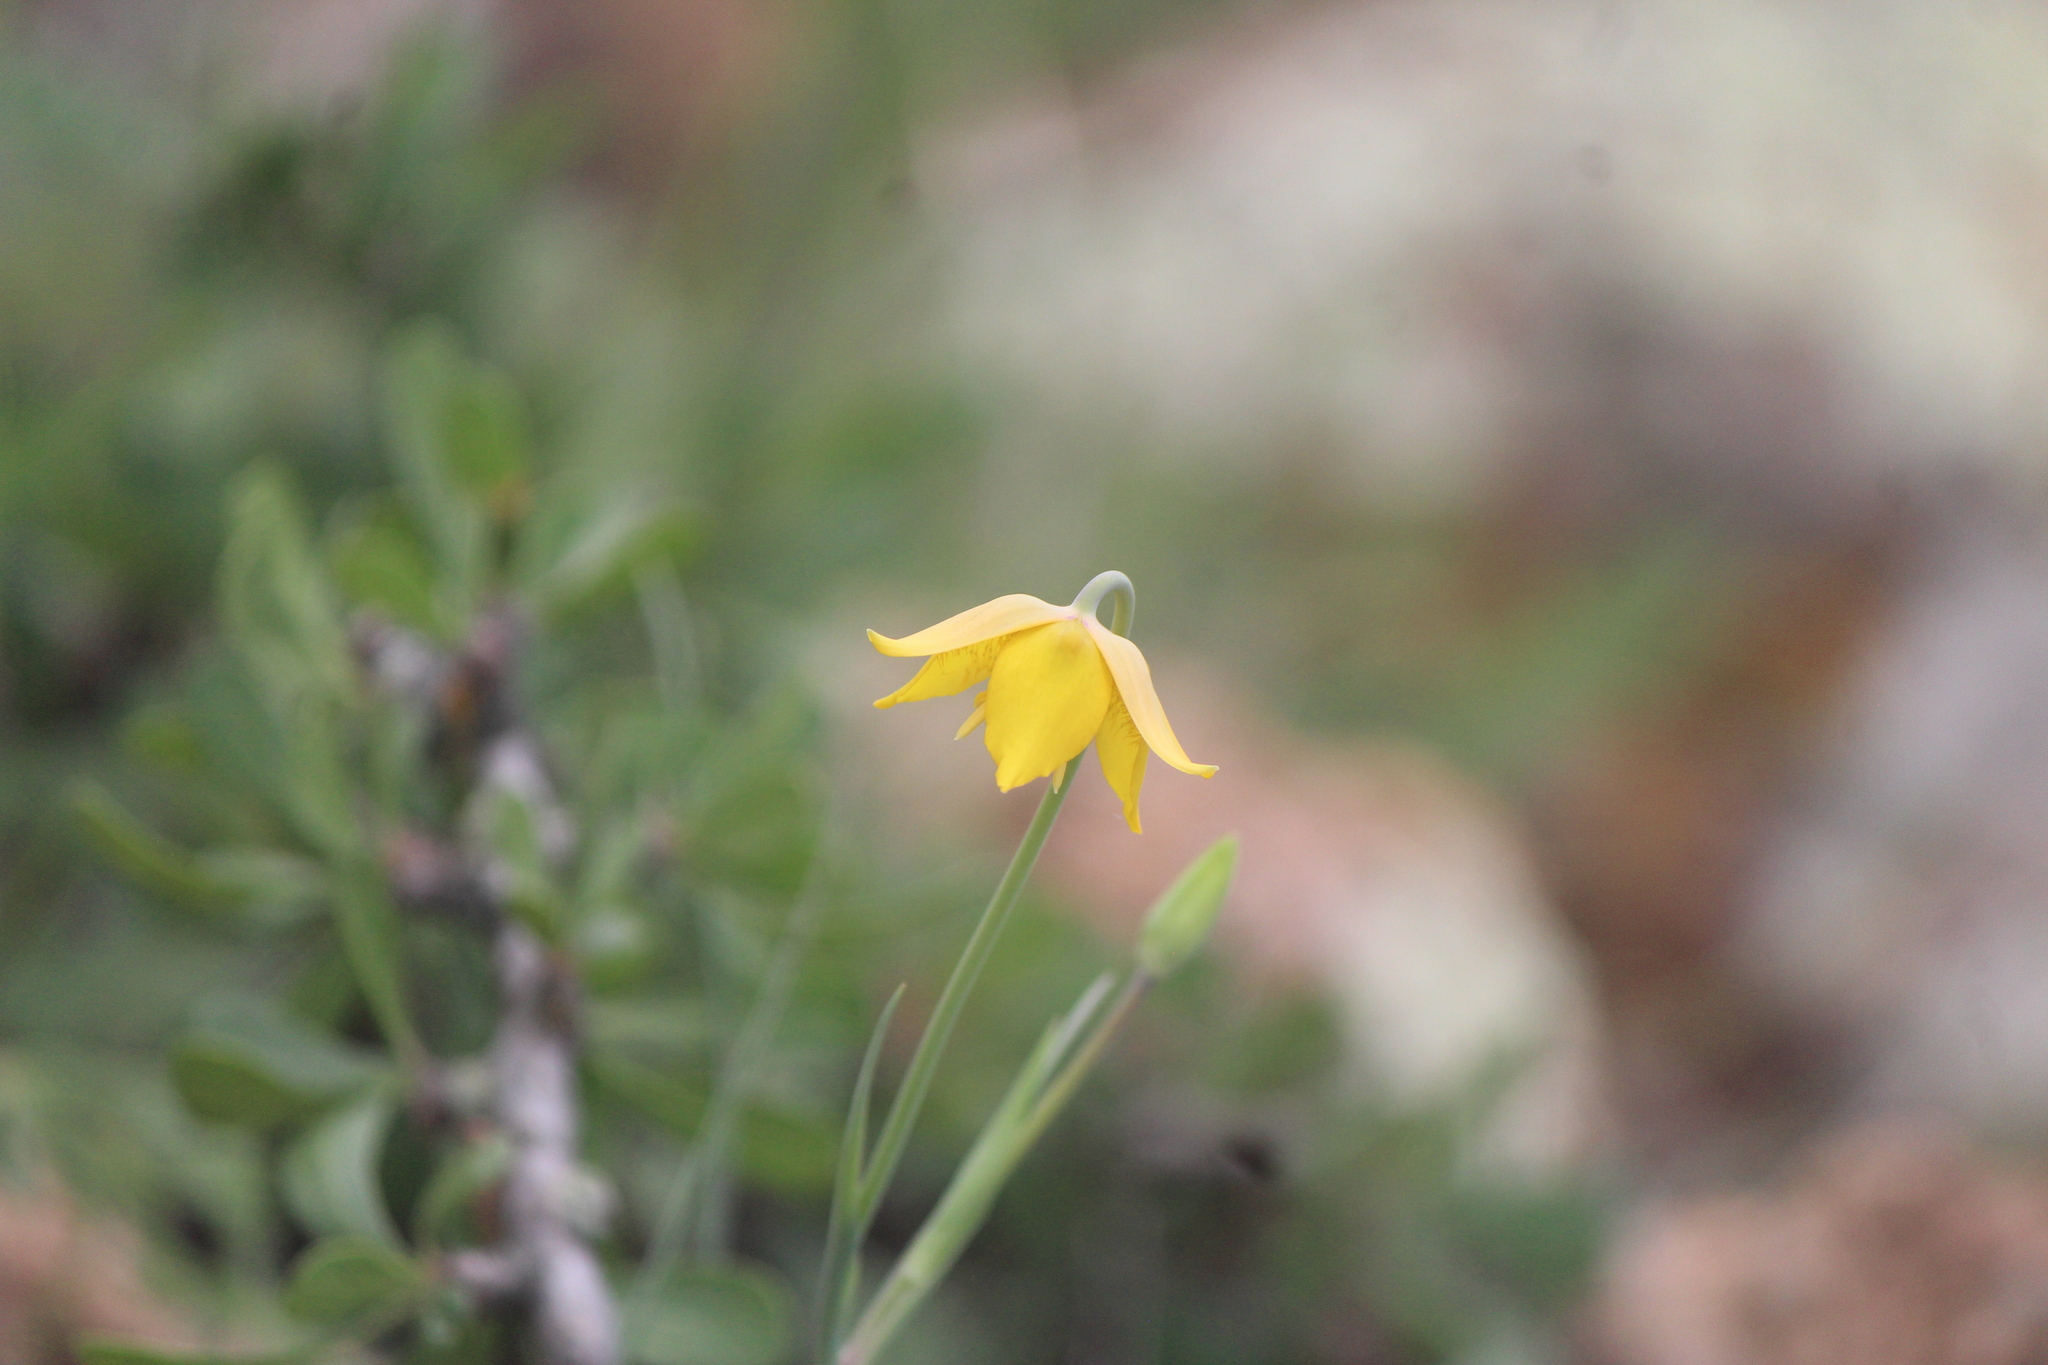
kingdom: Plantae
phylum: Tracheophyta
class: Liliopsida
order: Liliales
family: Liliaceae
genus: Calochortus
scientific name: Calochortus barbatus
